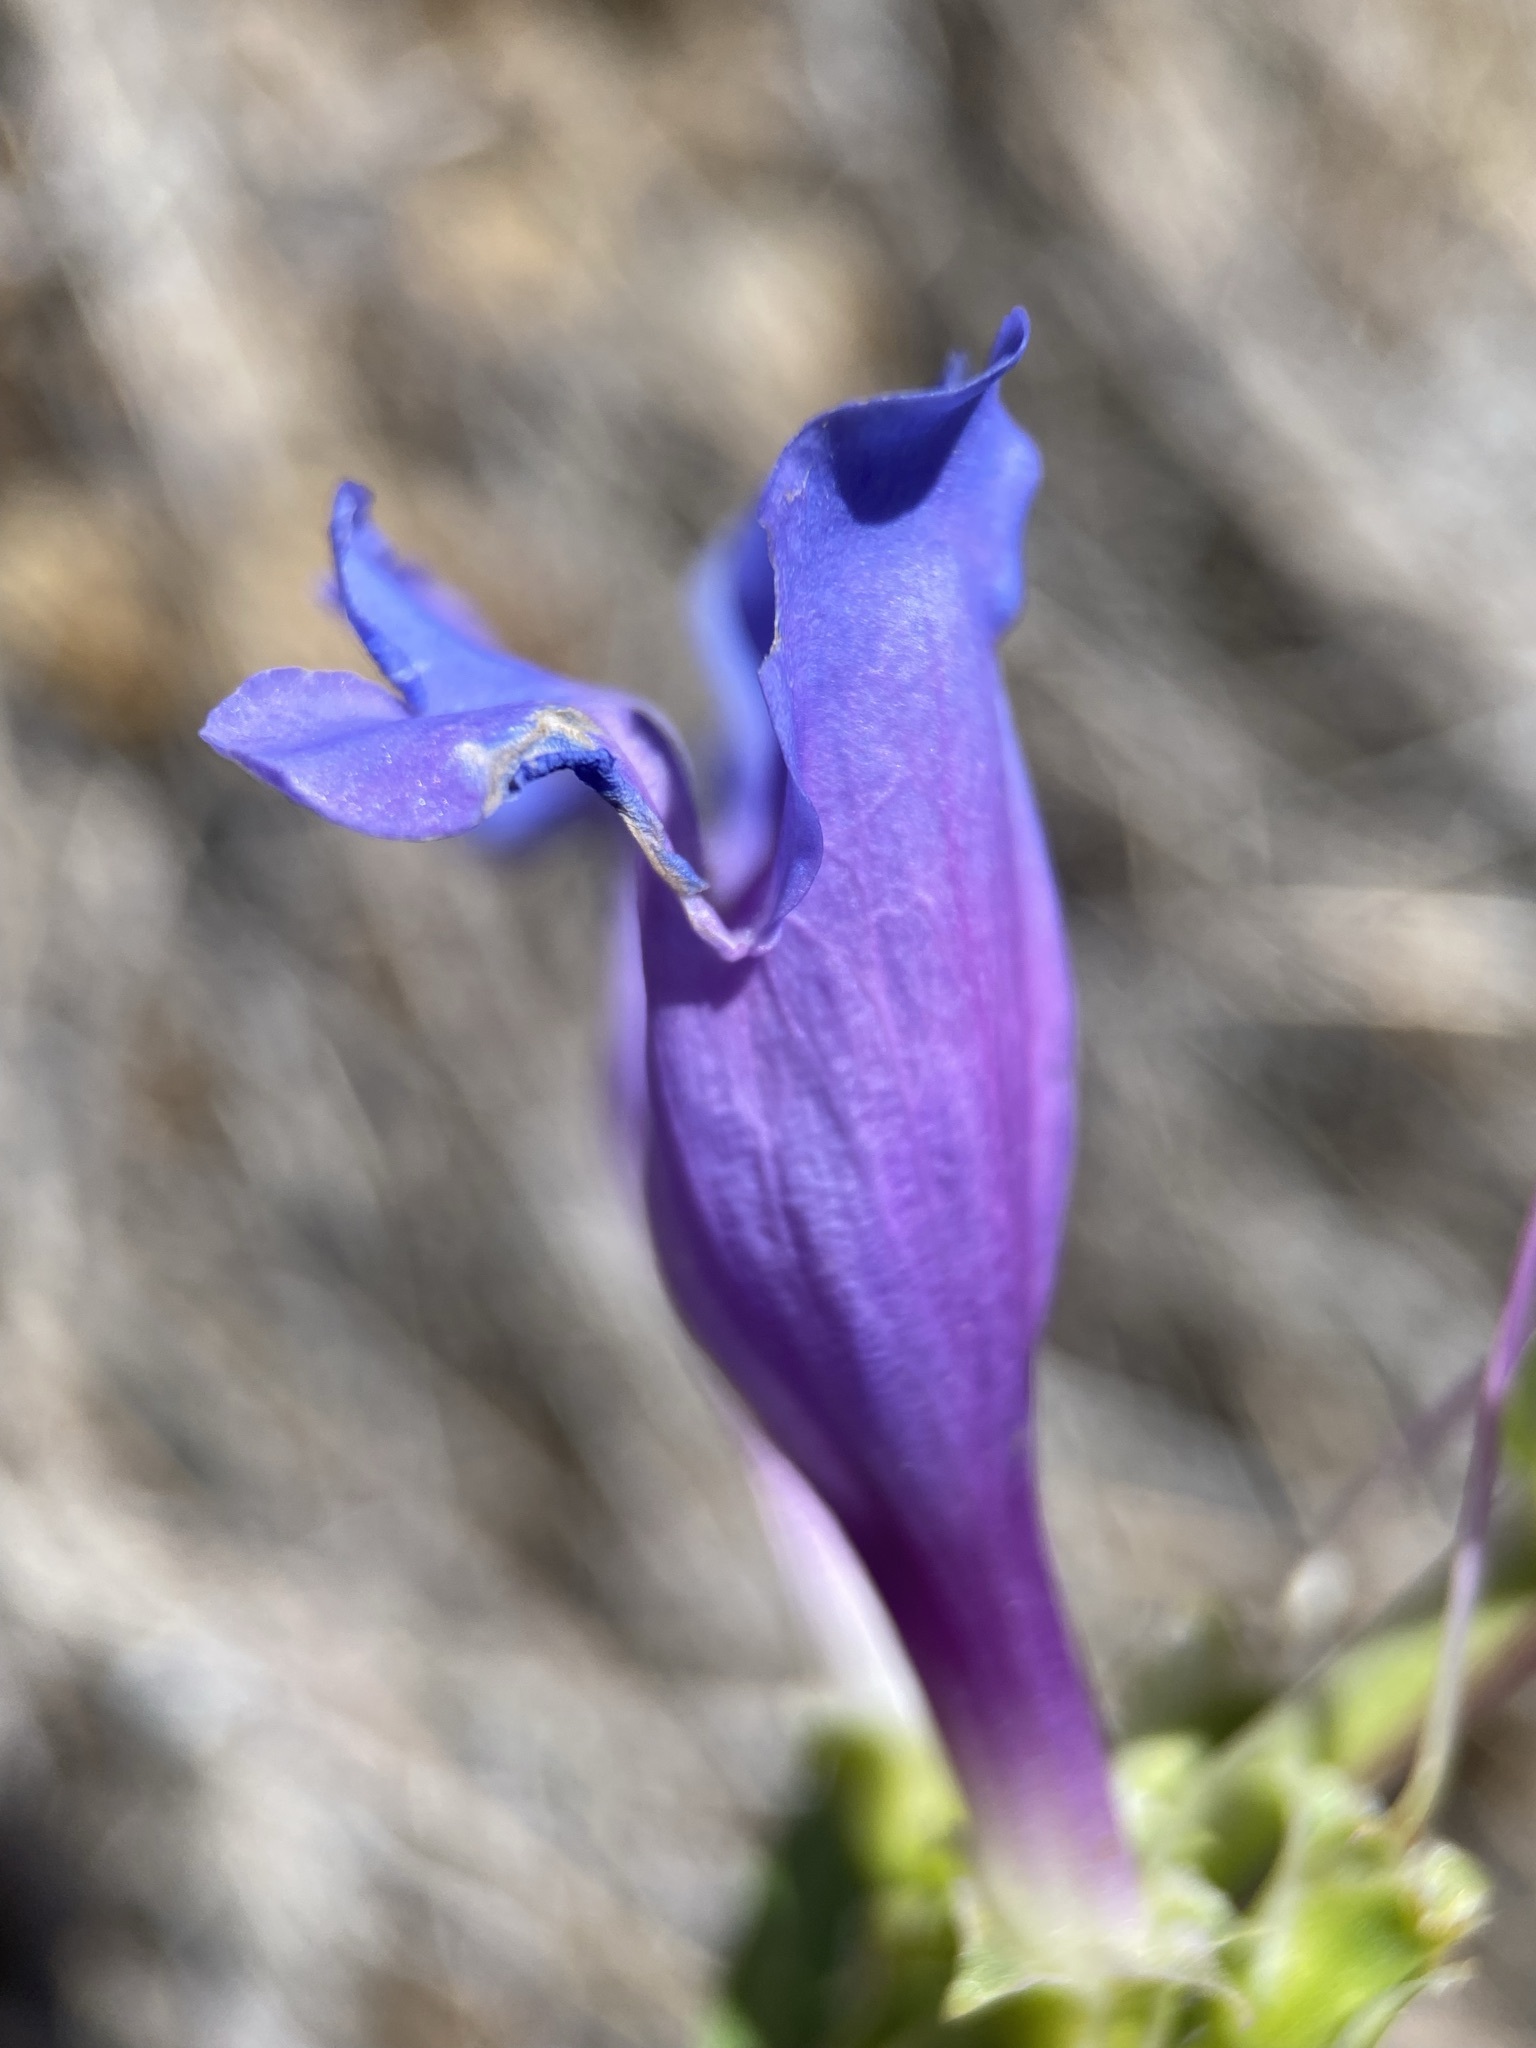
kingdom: Plantae
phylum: Tracheophyta
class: Magnoliopsida
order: Lamiales
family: Plantaginaceae
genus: Penstemon
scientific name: Penstemon speciosus
